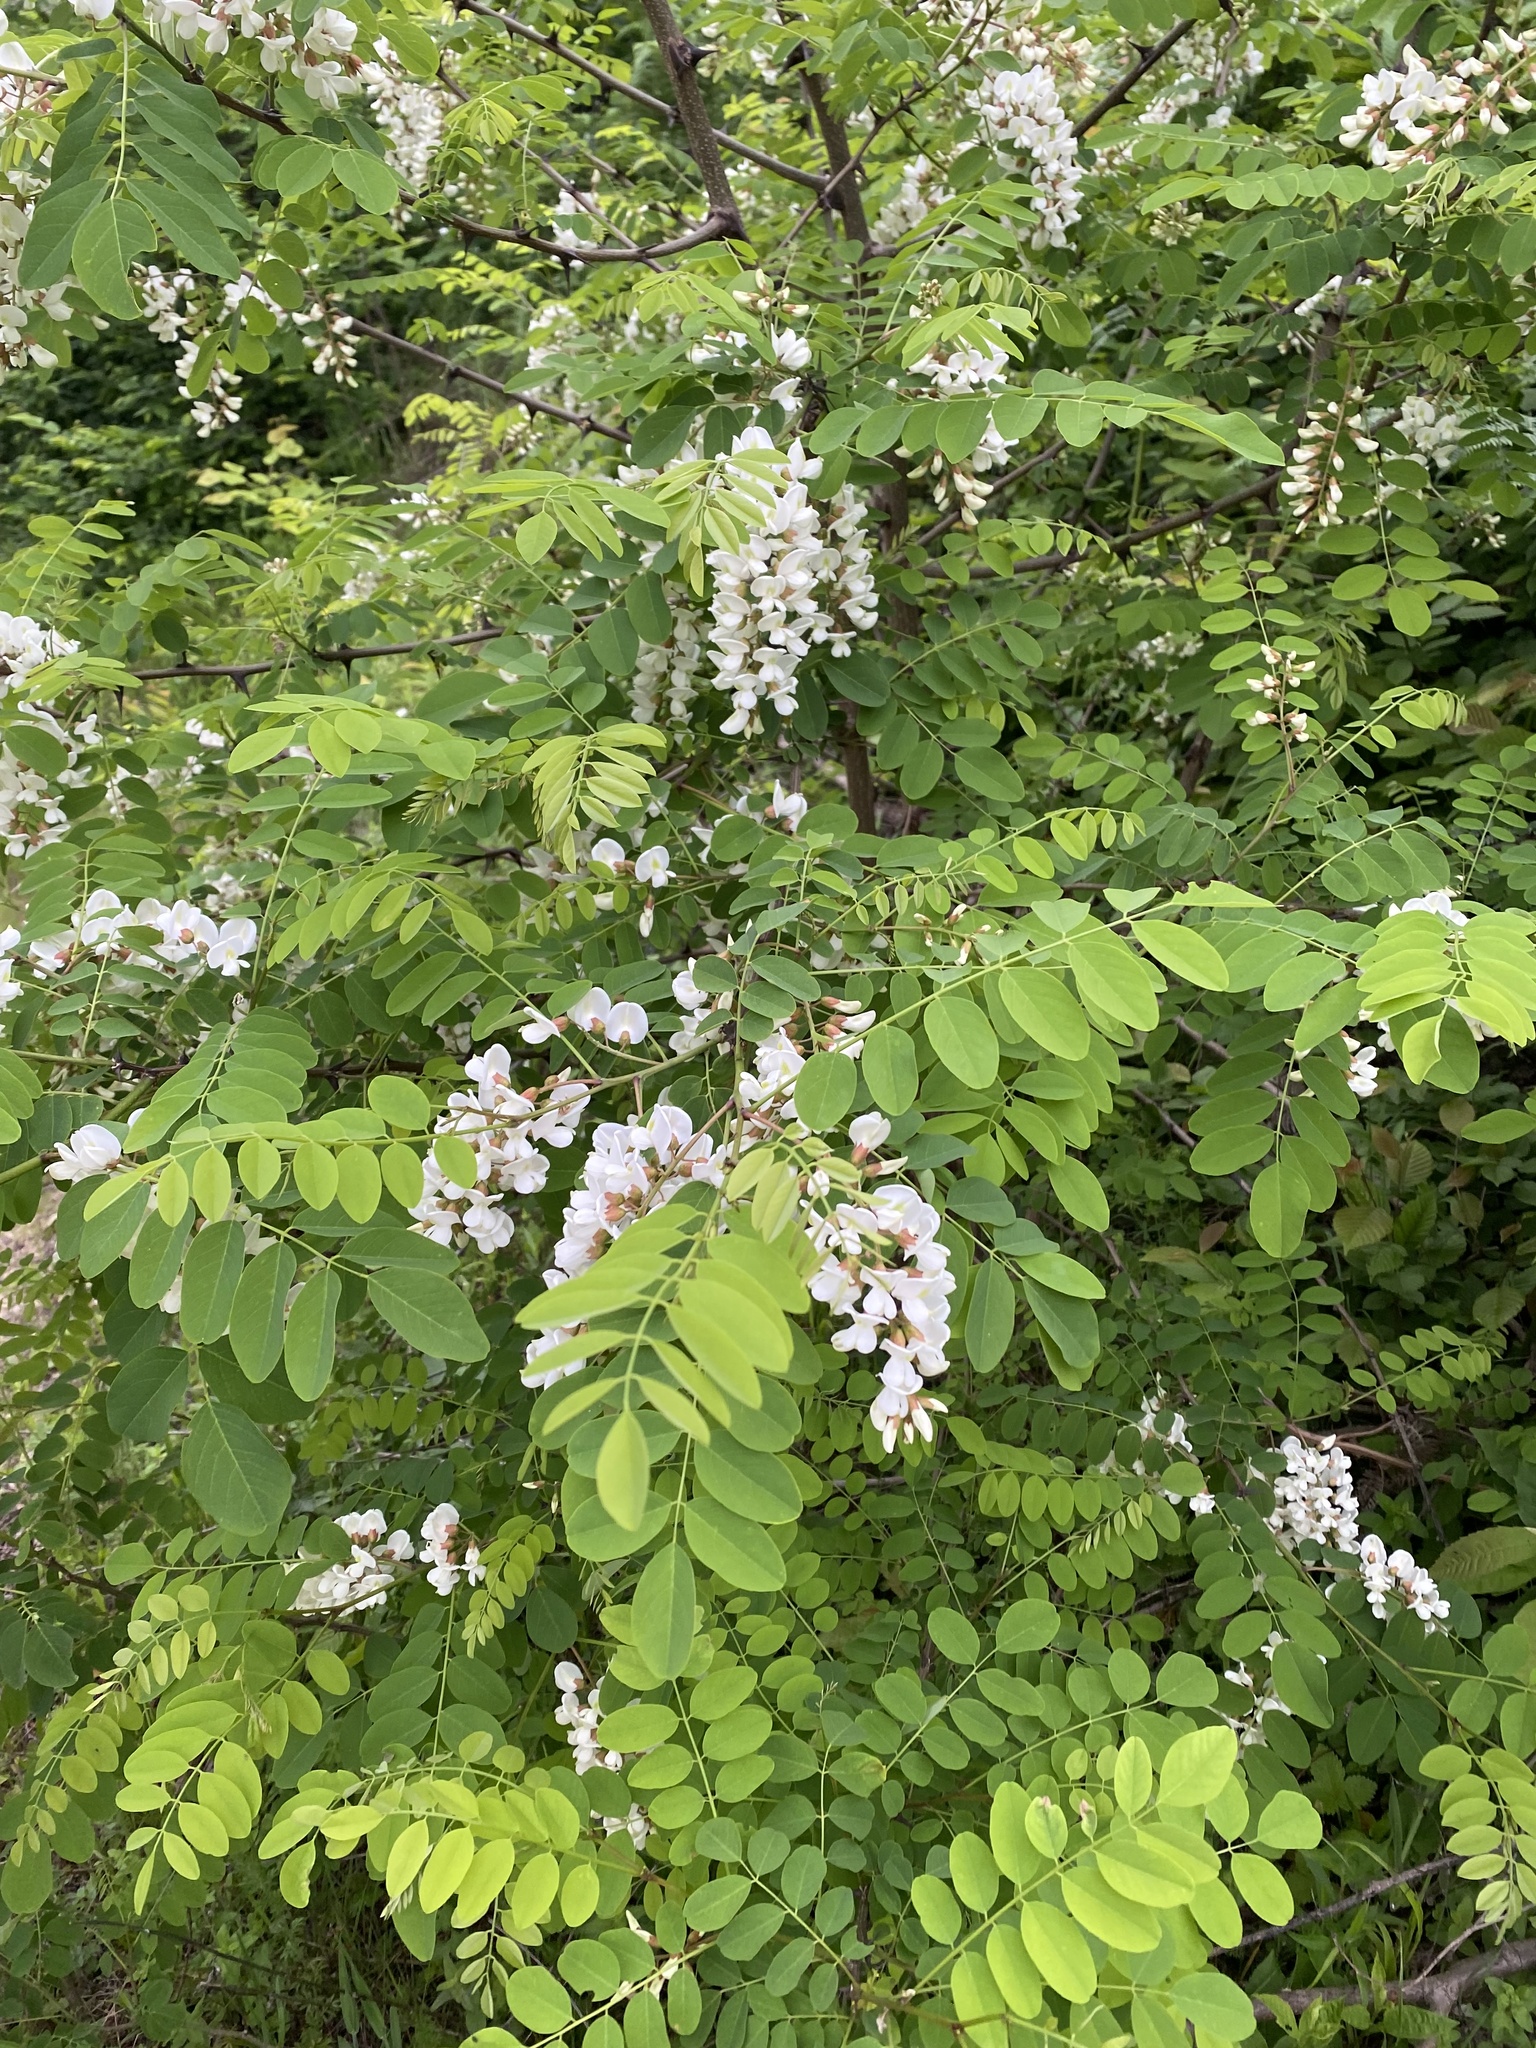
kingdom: Plantae
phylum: Tracheophyta
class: Magnoliopsida
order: Fabales
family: Fabaceae
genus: Robinia
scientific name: Robinia pseudoacacia
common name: Black locust
